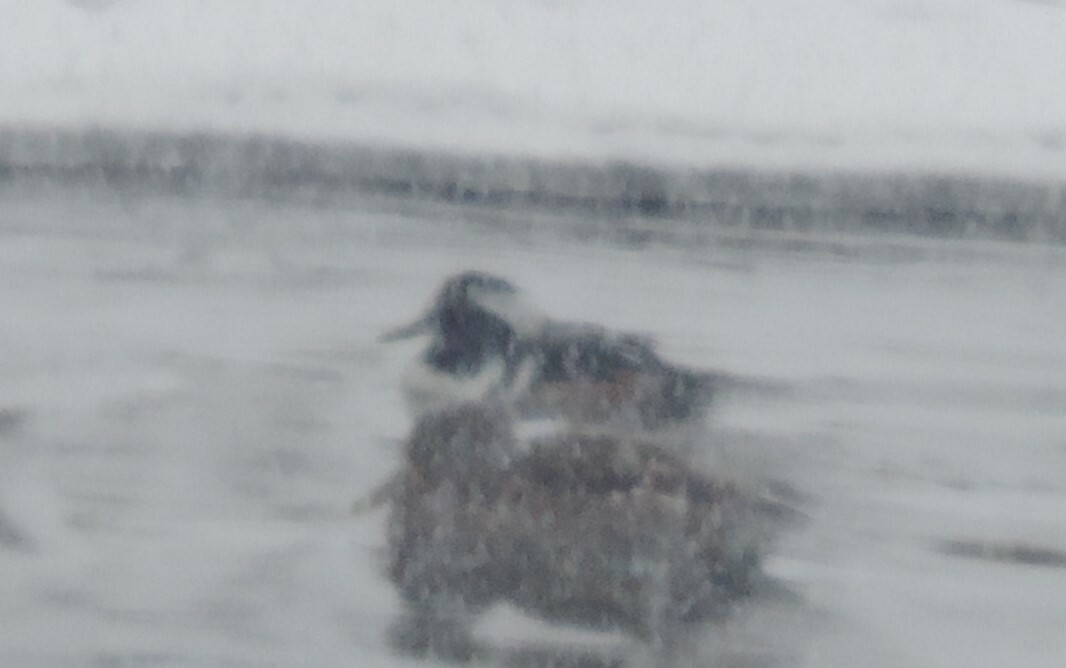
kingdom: Animalia
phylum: Chordata
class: Aves
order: Anseriformes
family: Anatidae
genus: Lophodytes
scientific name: Lophodytes cucullatus
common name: Hooded merganser
